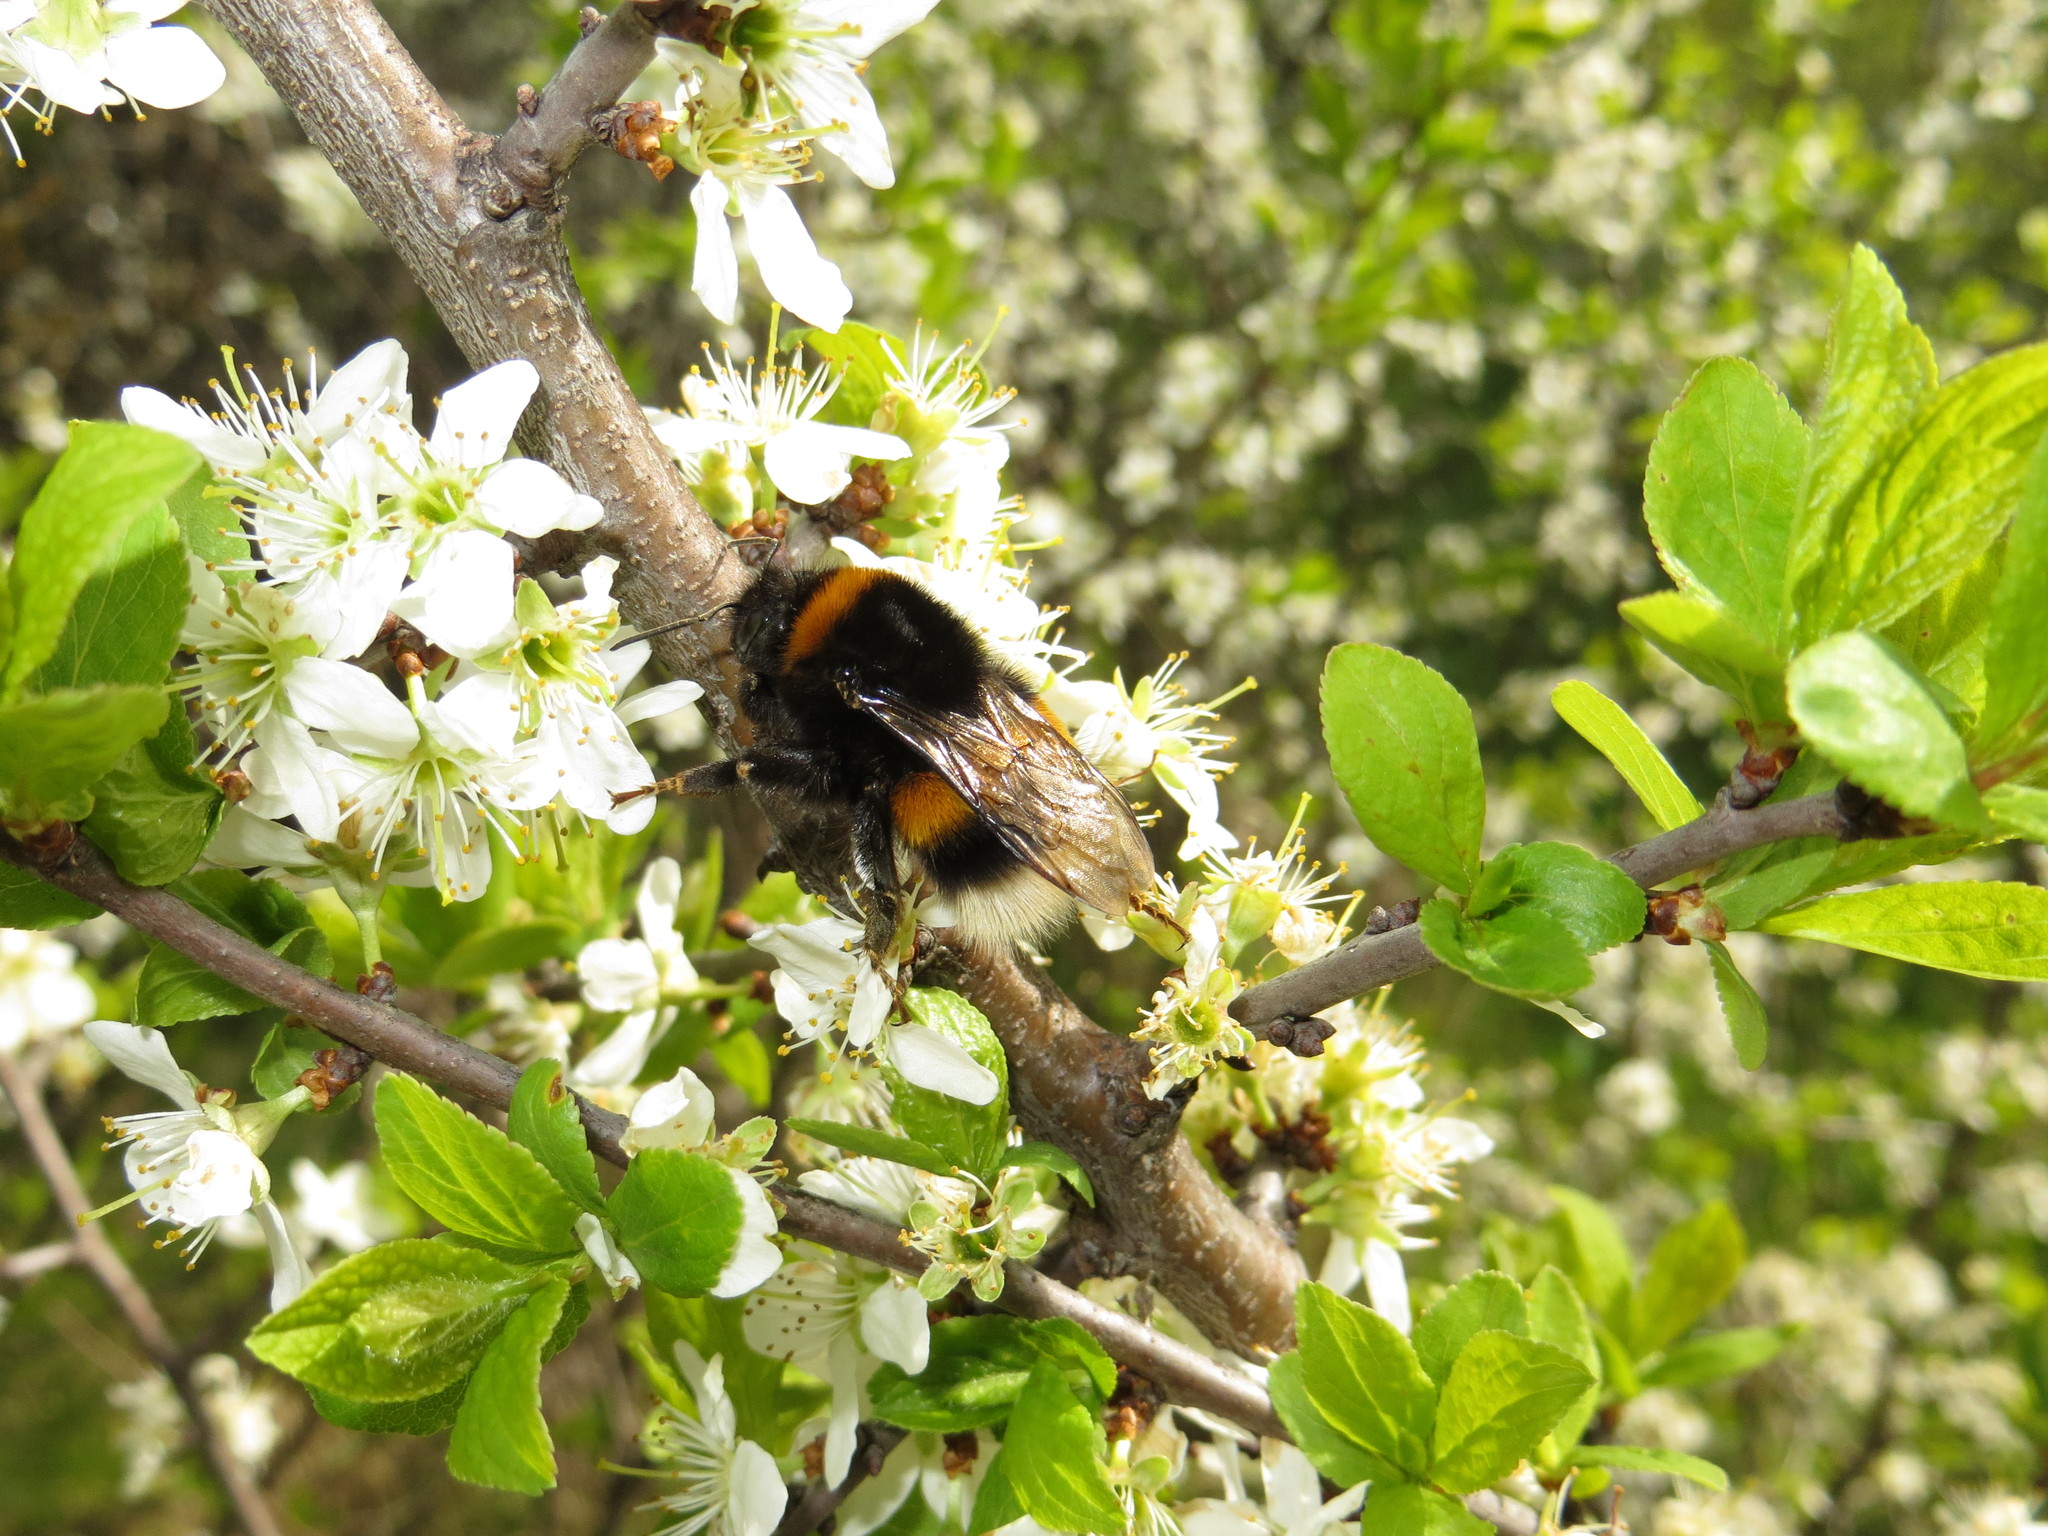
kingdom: Animalia
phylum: Arthropoda
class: Insecta
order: Hymenoptera
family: Apidae
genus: Bombus
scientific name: Bombus terrestris
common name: Buff-tailed bumblebee
